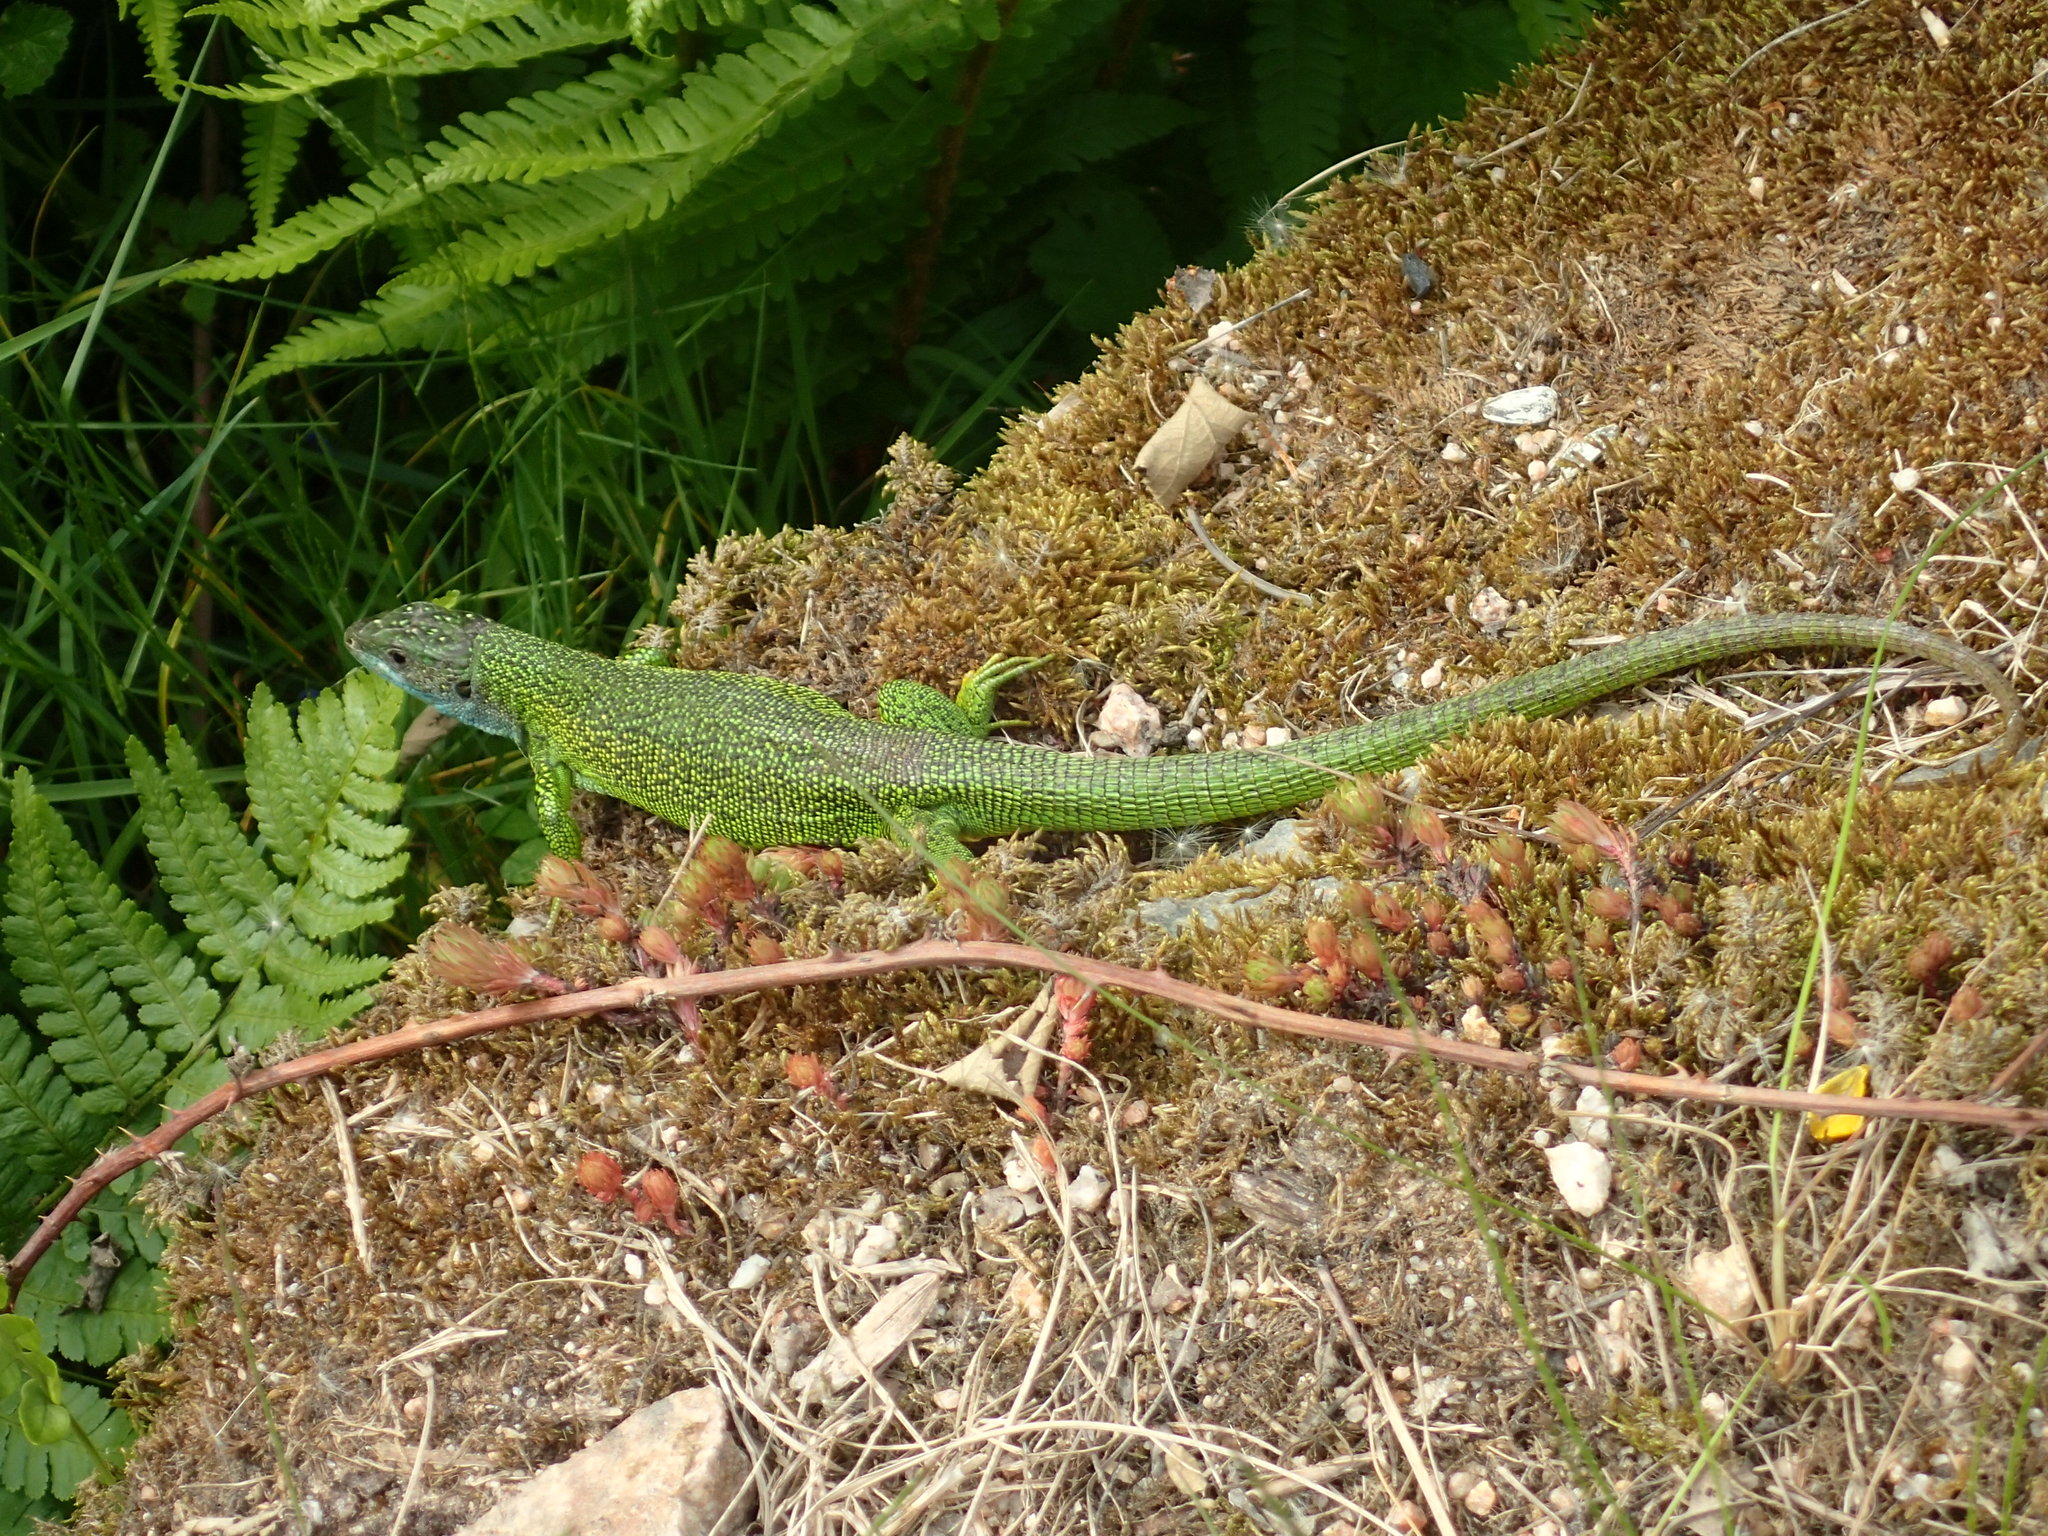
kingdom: Animalia
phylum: Chordata
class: Squamata
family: Lacertidae
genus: Lacerta
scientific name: Lacerta bilineata
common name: Western green lizard
